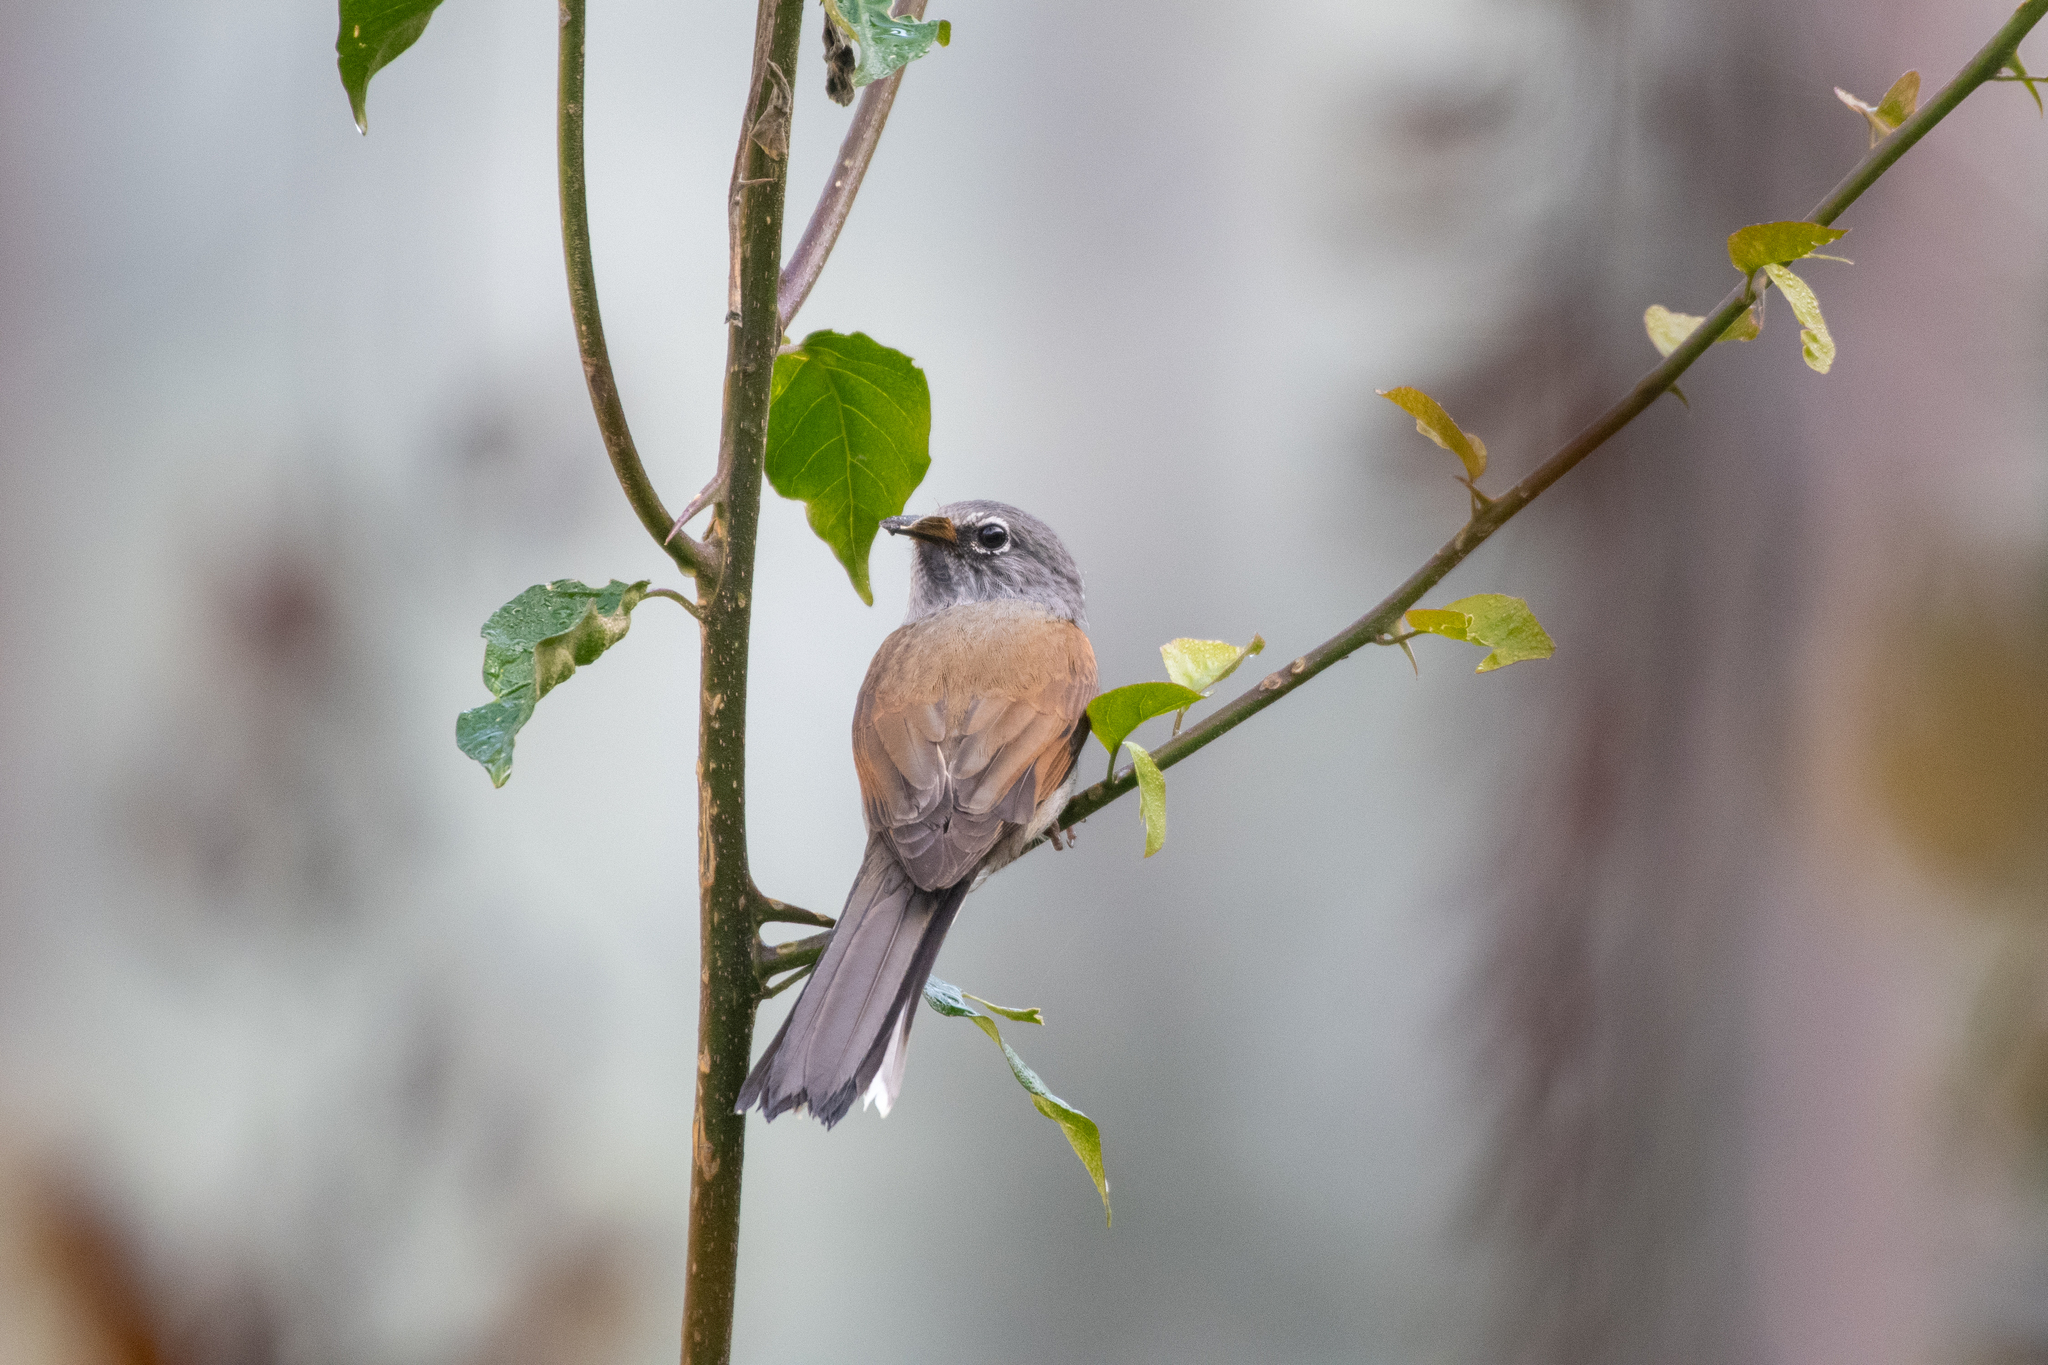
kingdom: Animalia
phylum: Chordata
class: Aves
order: Passeriformes
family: Turdidae
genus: Myadestes
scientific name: Myadestes occidentalis
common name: Brown-backed solitaire
